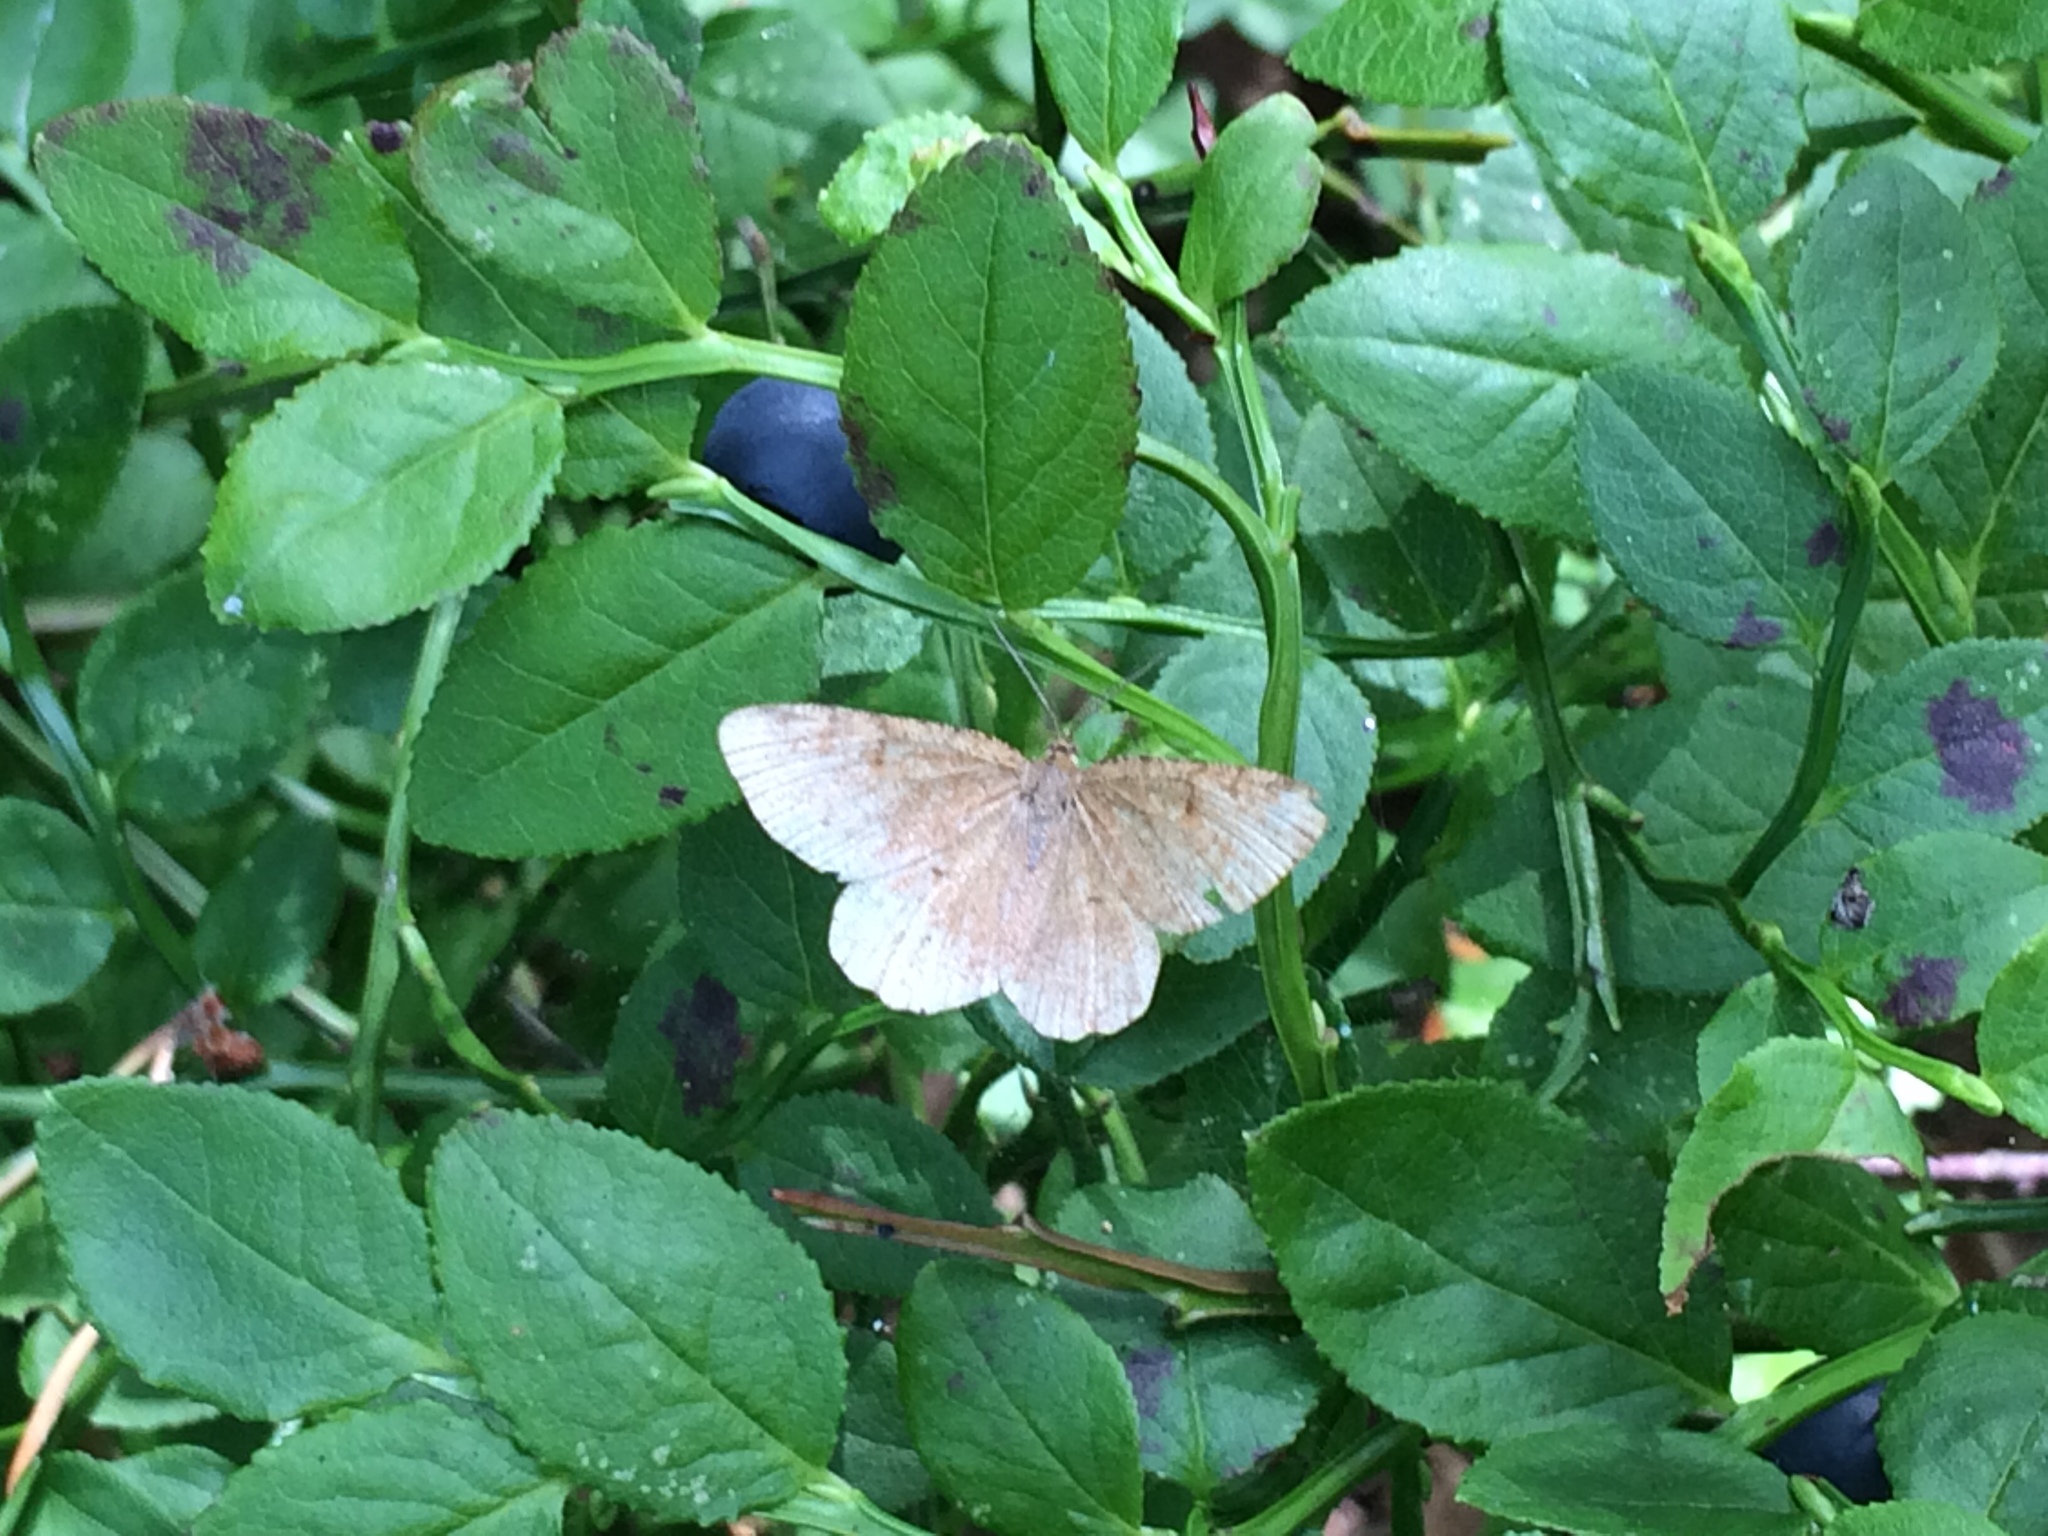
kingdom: Animalia
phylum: Arthropoda
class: Insecta
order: Lepidoptera
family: Geometridae
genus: Ematurga
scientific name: Ematurga atomaria
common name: Common heath
